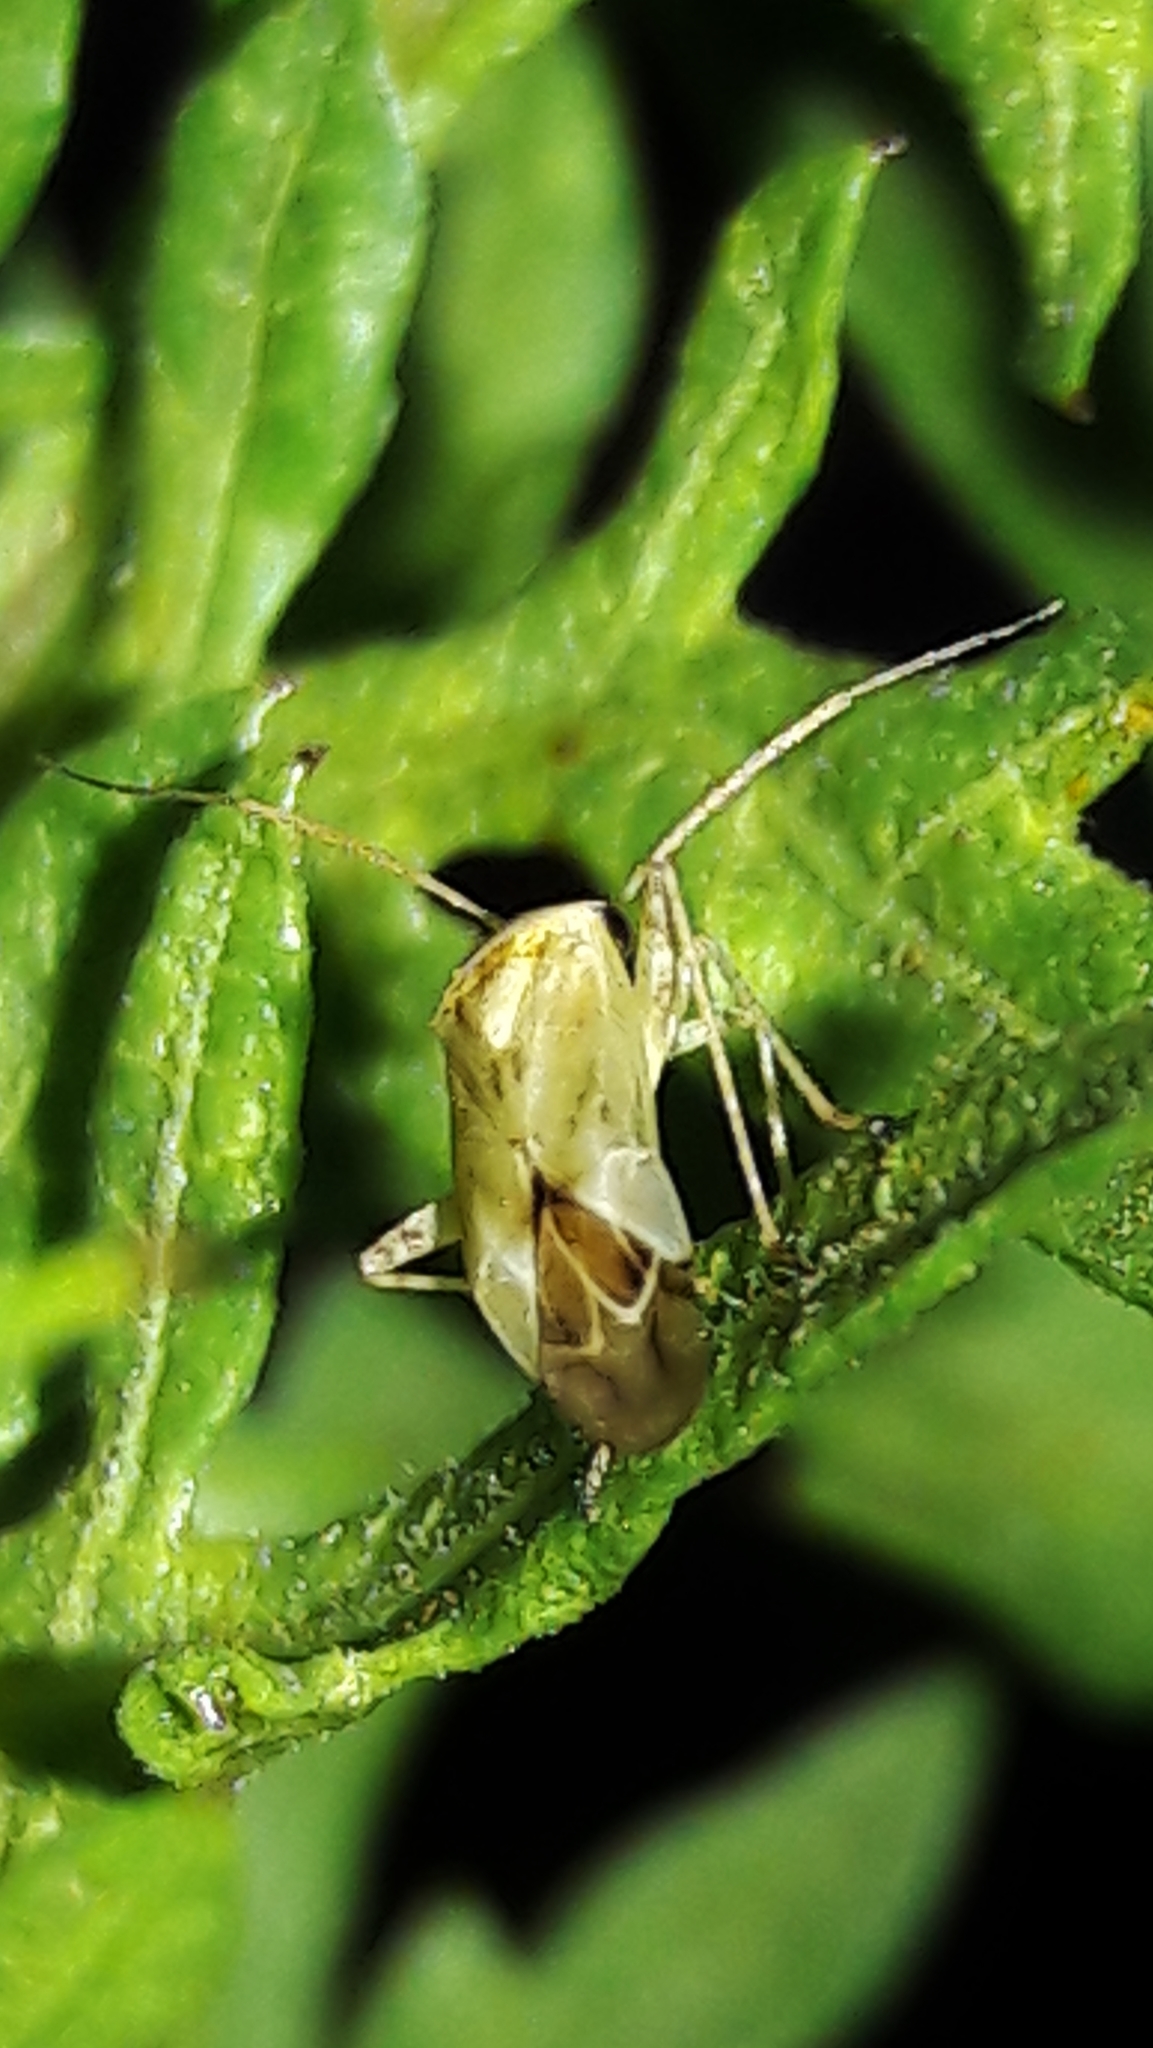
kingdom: Animalia
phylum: Arthropoda
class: Insecta
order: Hemiptera
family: Miridae
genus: Taylorilygus
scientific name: Taylorilygus apicalis
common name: Plant bug
